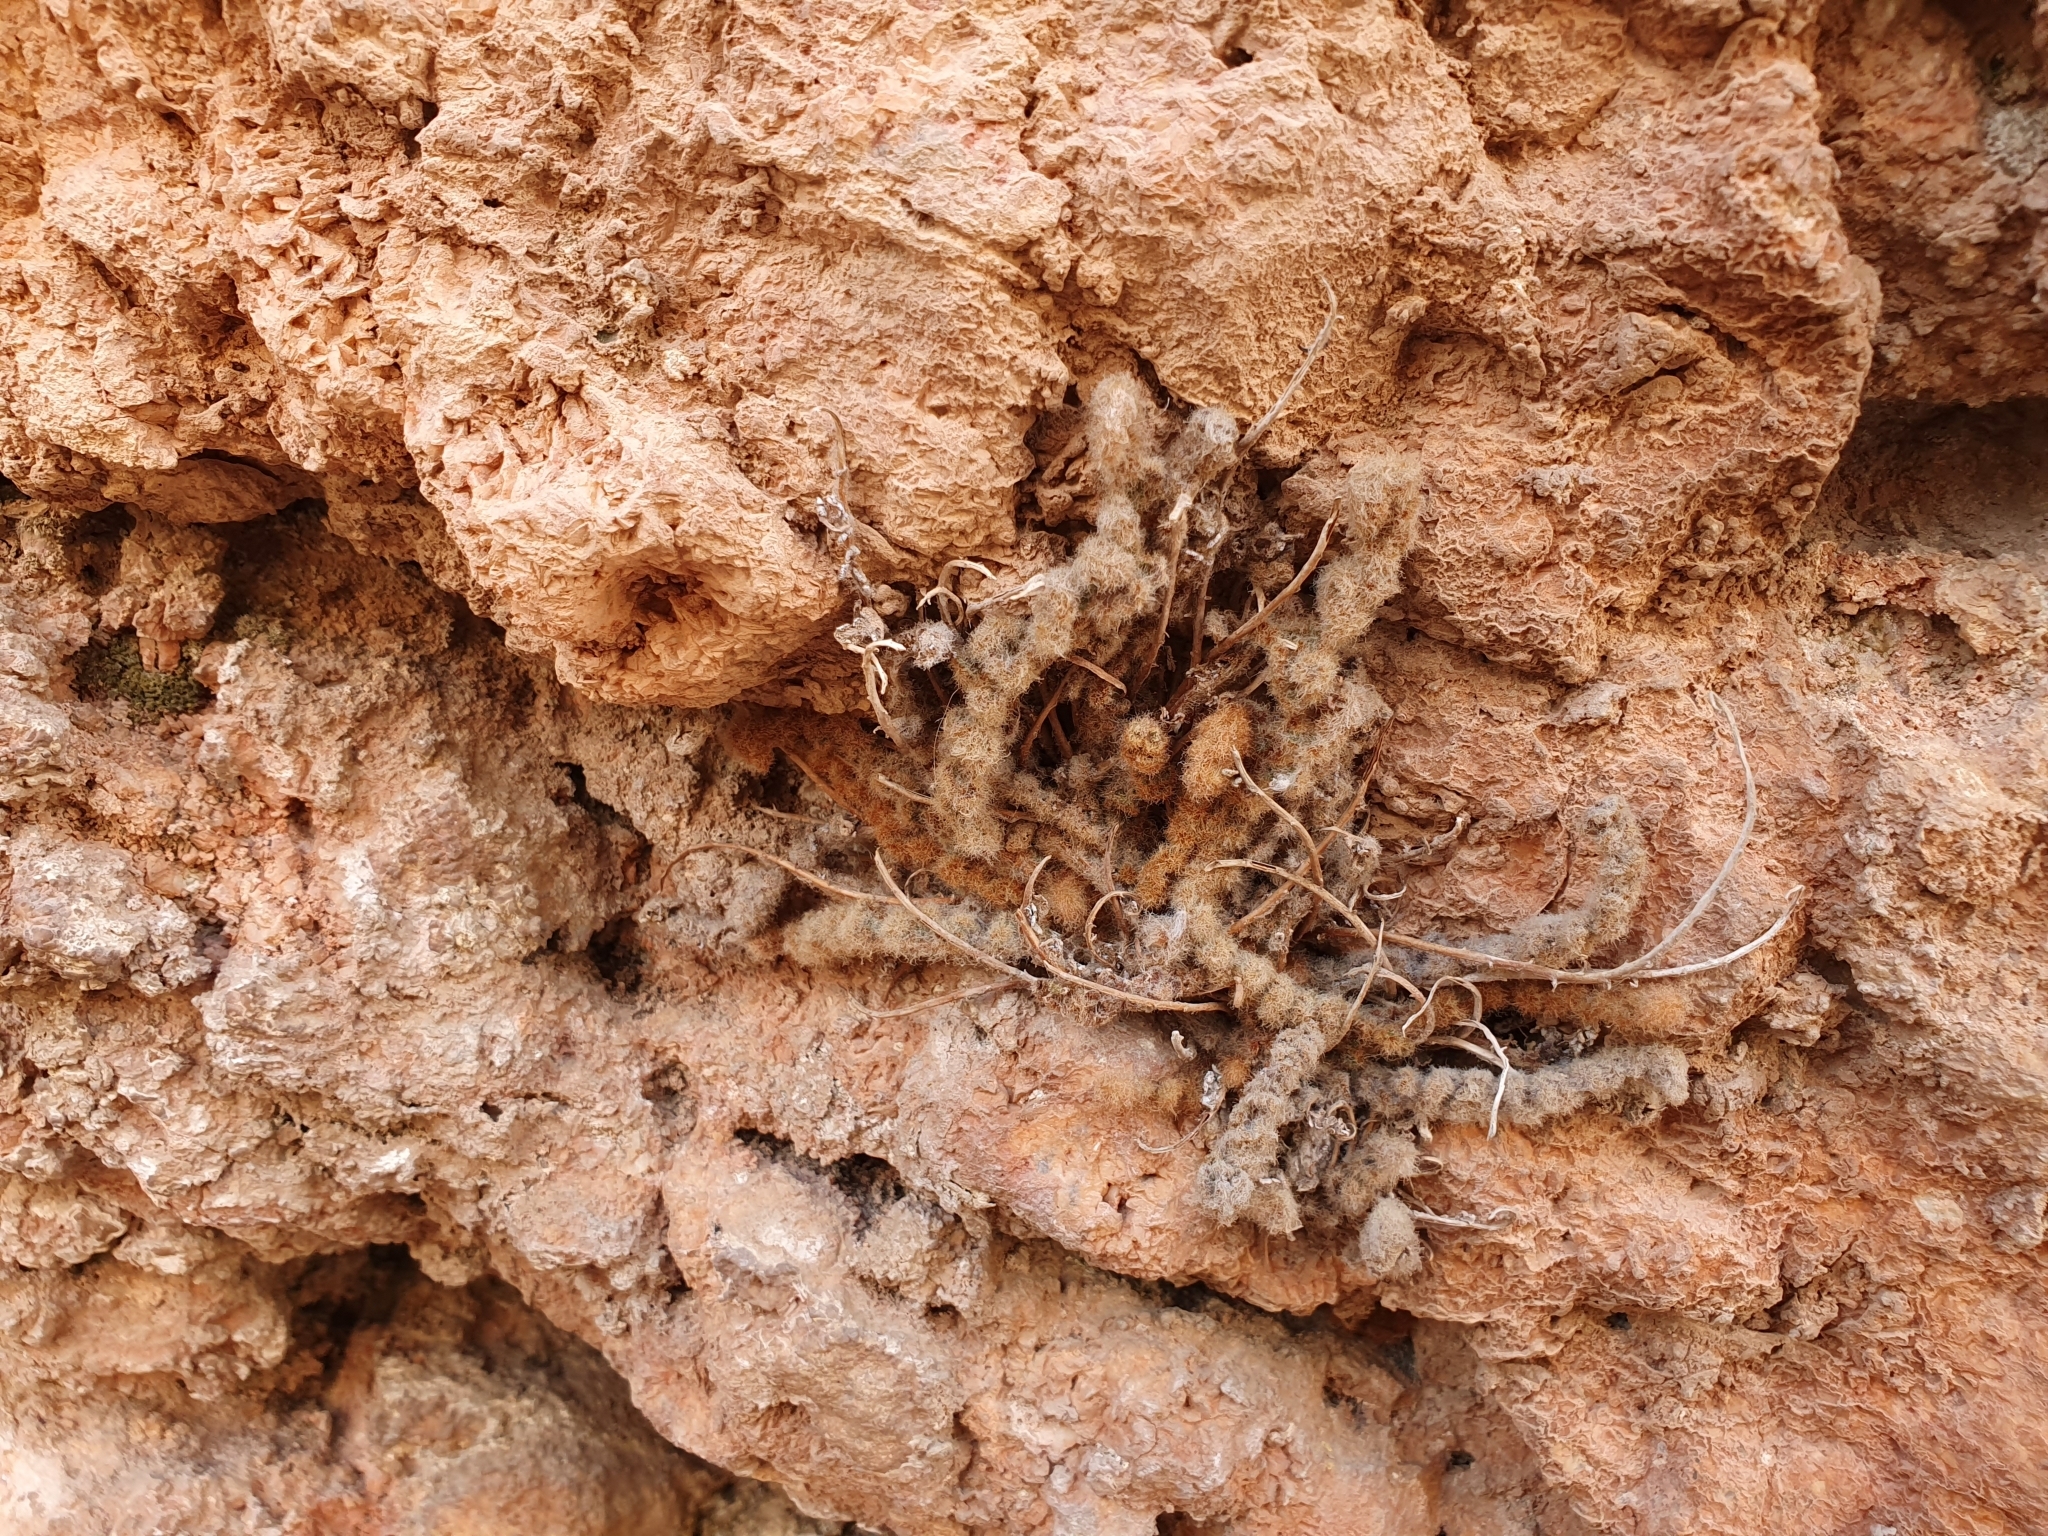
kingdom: Plantae
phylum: Tracheophyta
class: Polypodiopsida
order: Polypodiales
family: Pteridaceae
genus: Cosentinia
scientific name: Cosentinia vellea
